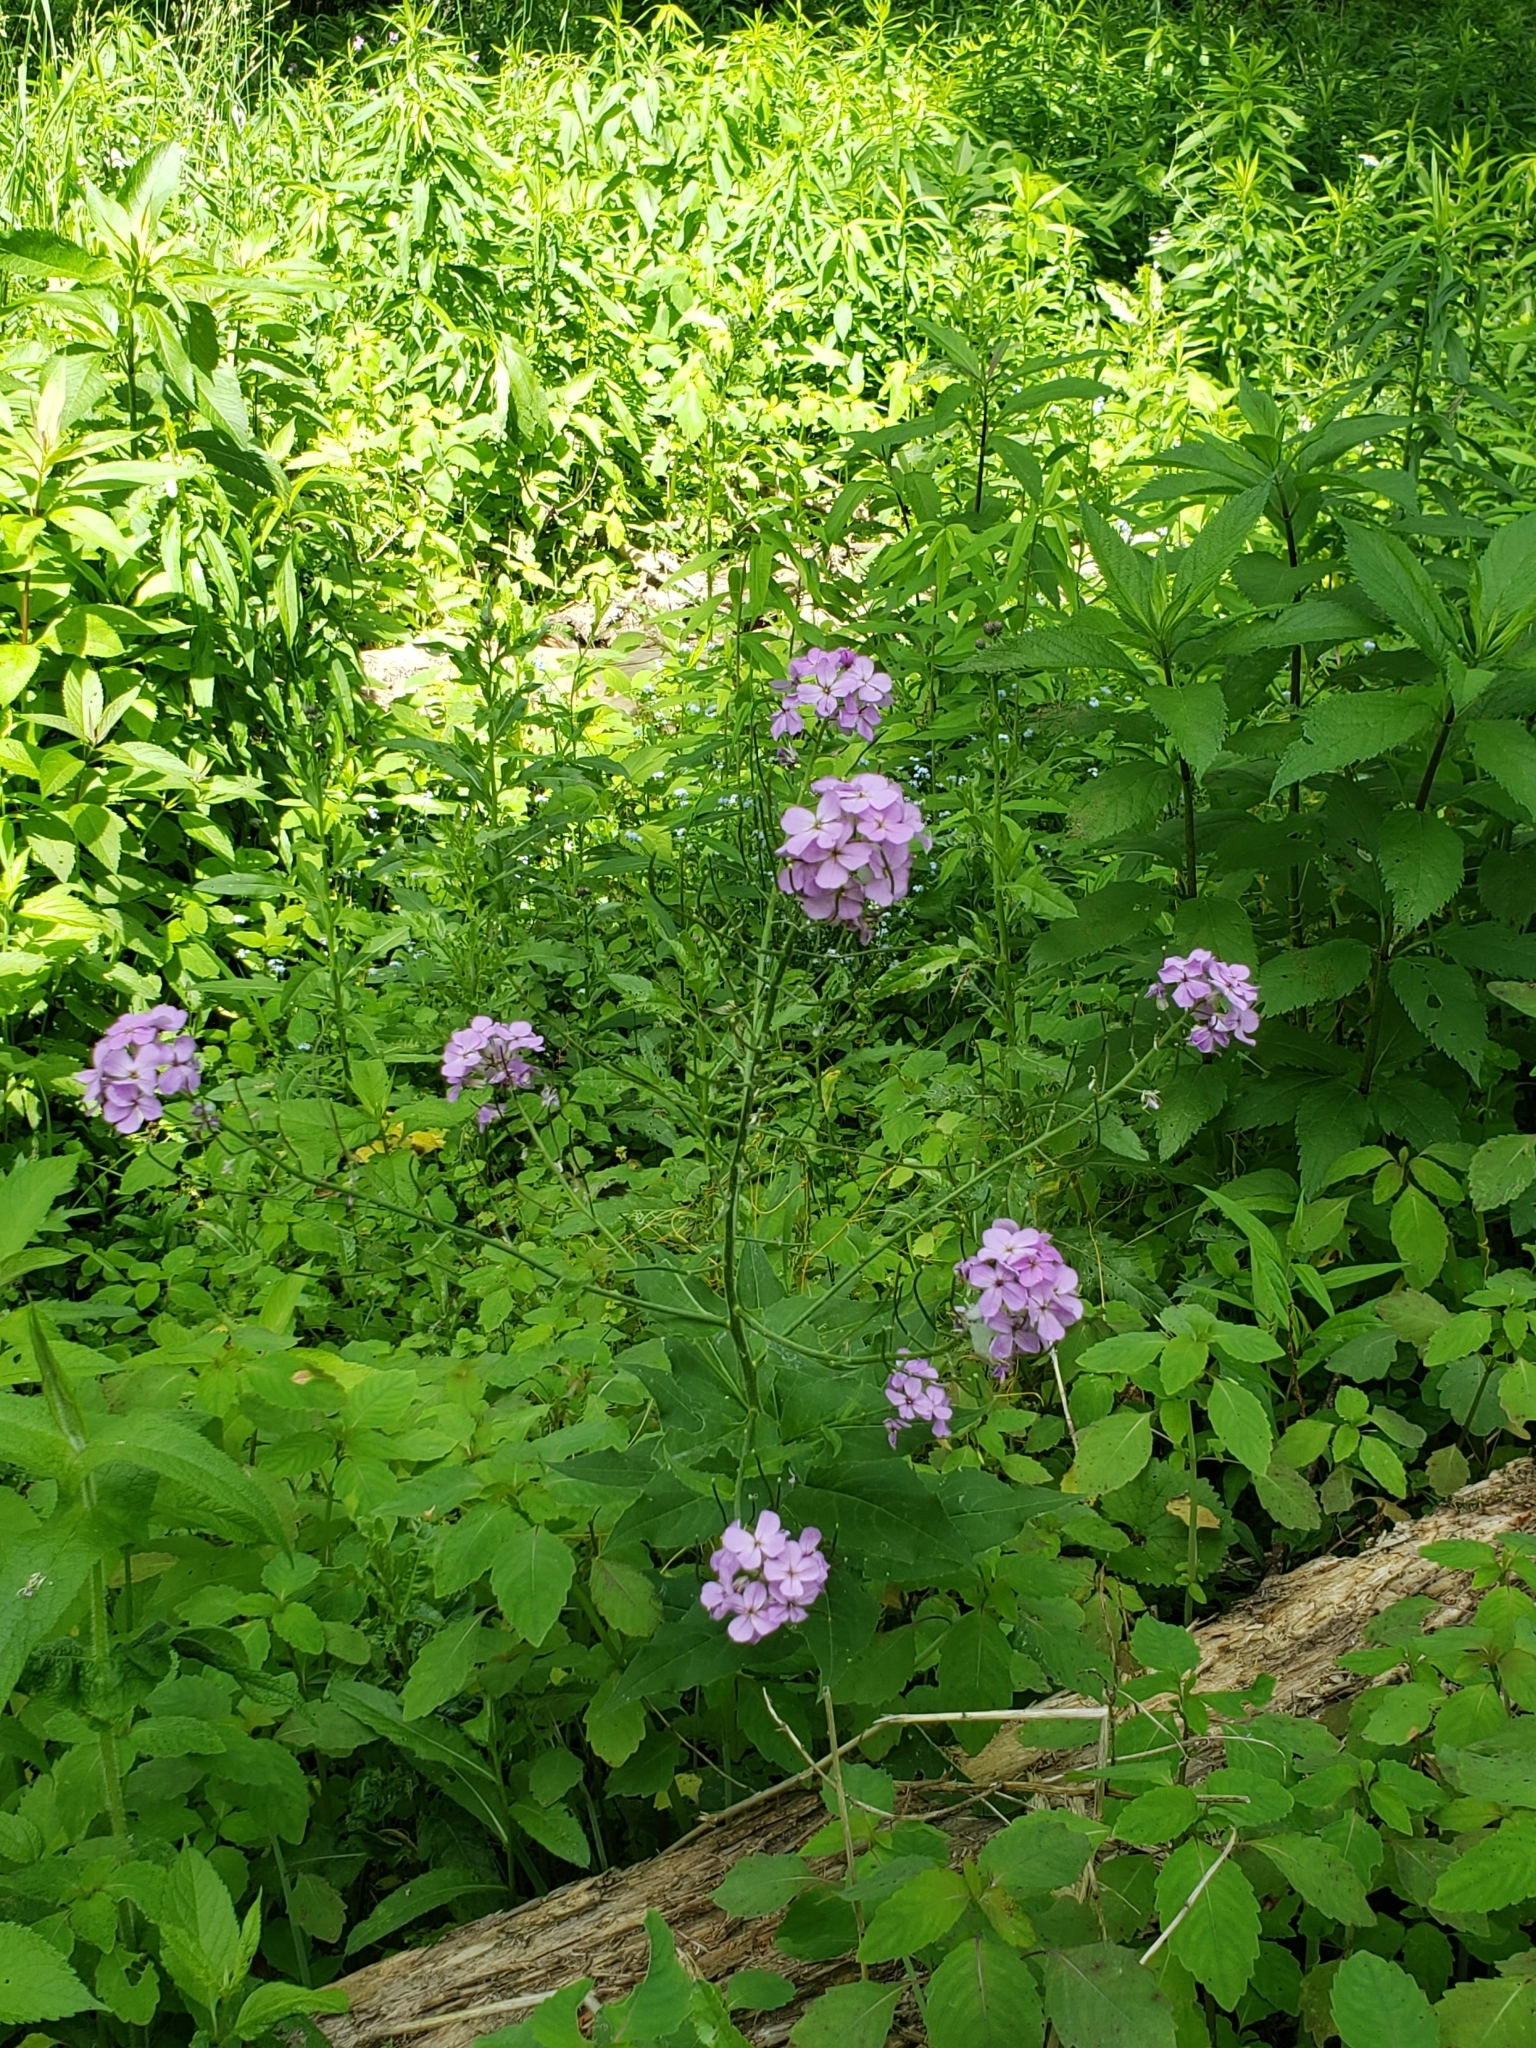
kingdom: Plantae
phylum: Tracheophyta
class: Magnoliopsida
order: Brassicales
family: Brassicaceae
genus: Hesperis
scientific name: Hesperis matronalis
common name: Dame's-violet
